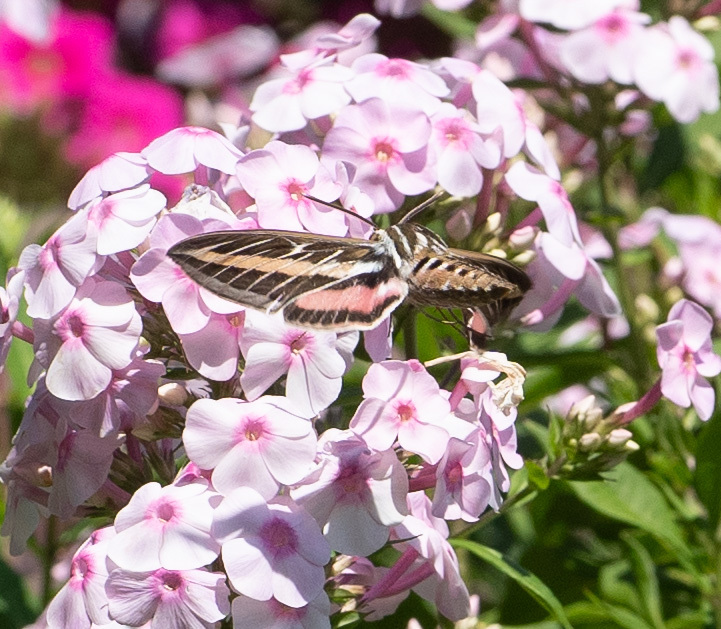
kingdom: Animalia
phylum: Arthropoda
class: Insecta
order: Lepidoptera
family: Sphingidae
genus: Hyles
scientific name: Hyles lineata
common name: White-lined sphinx
